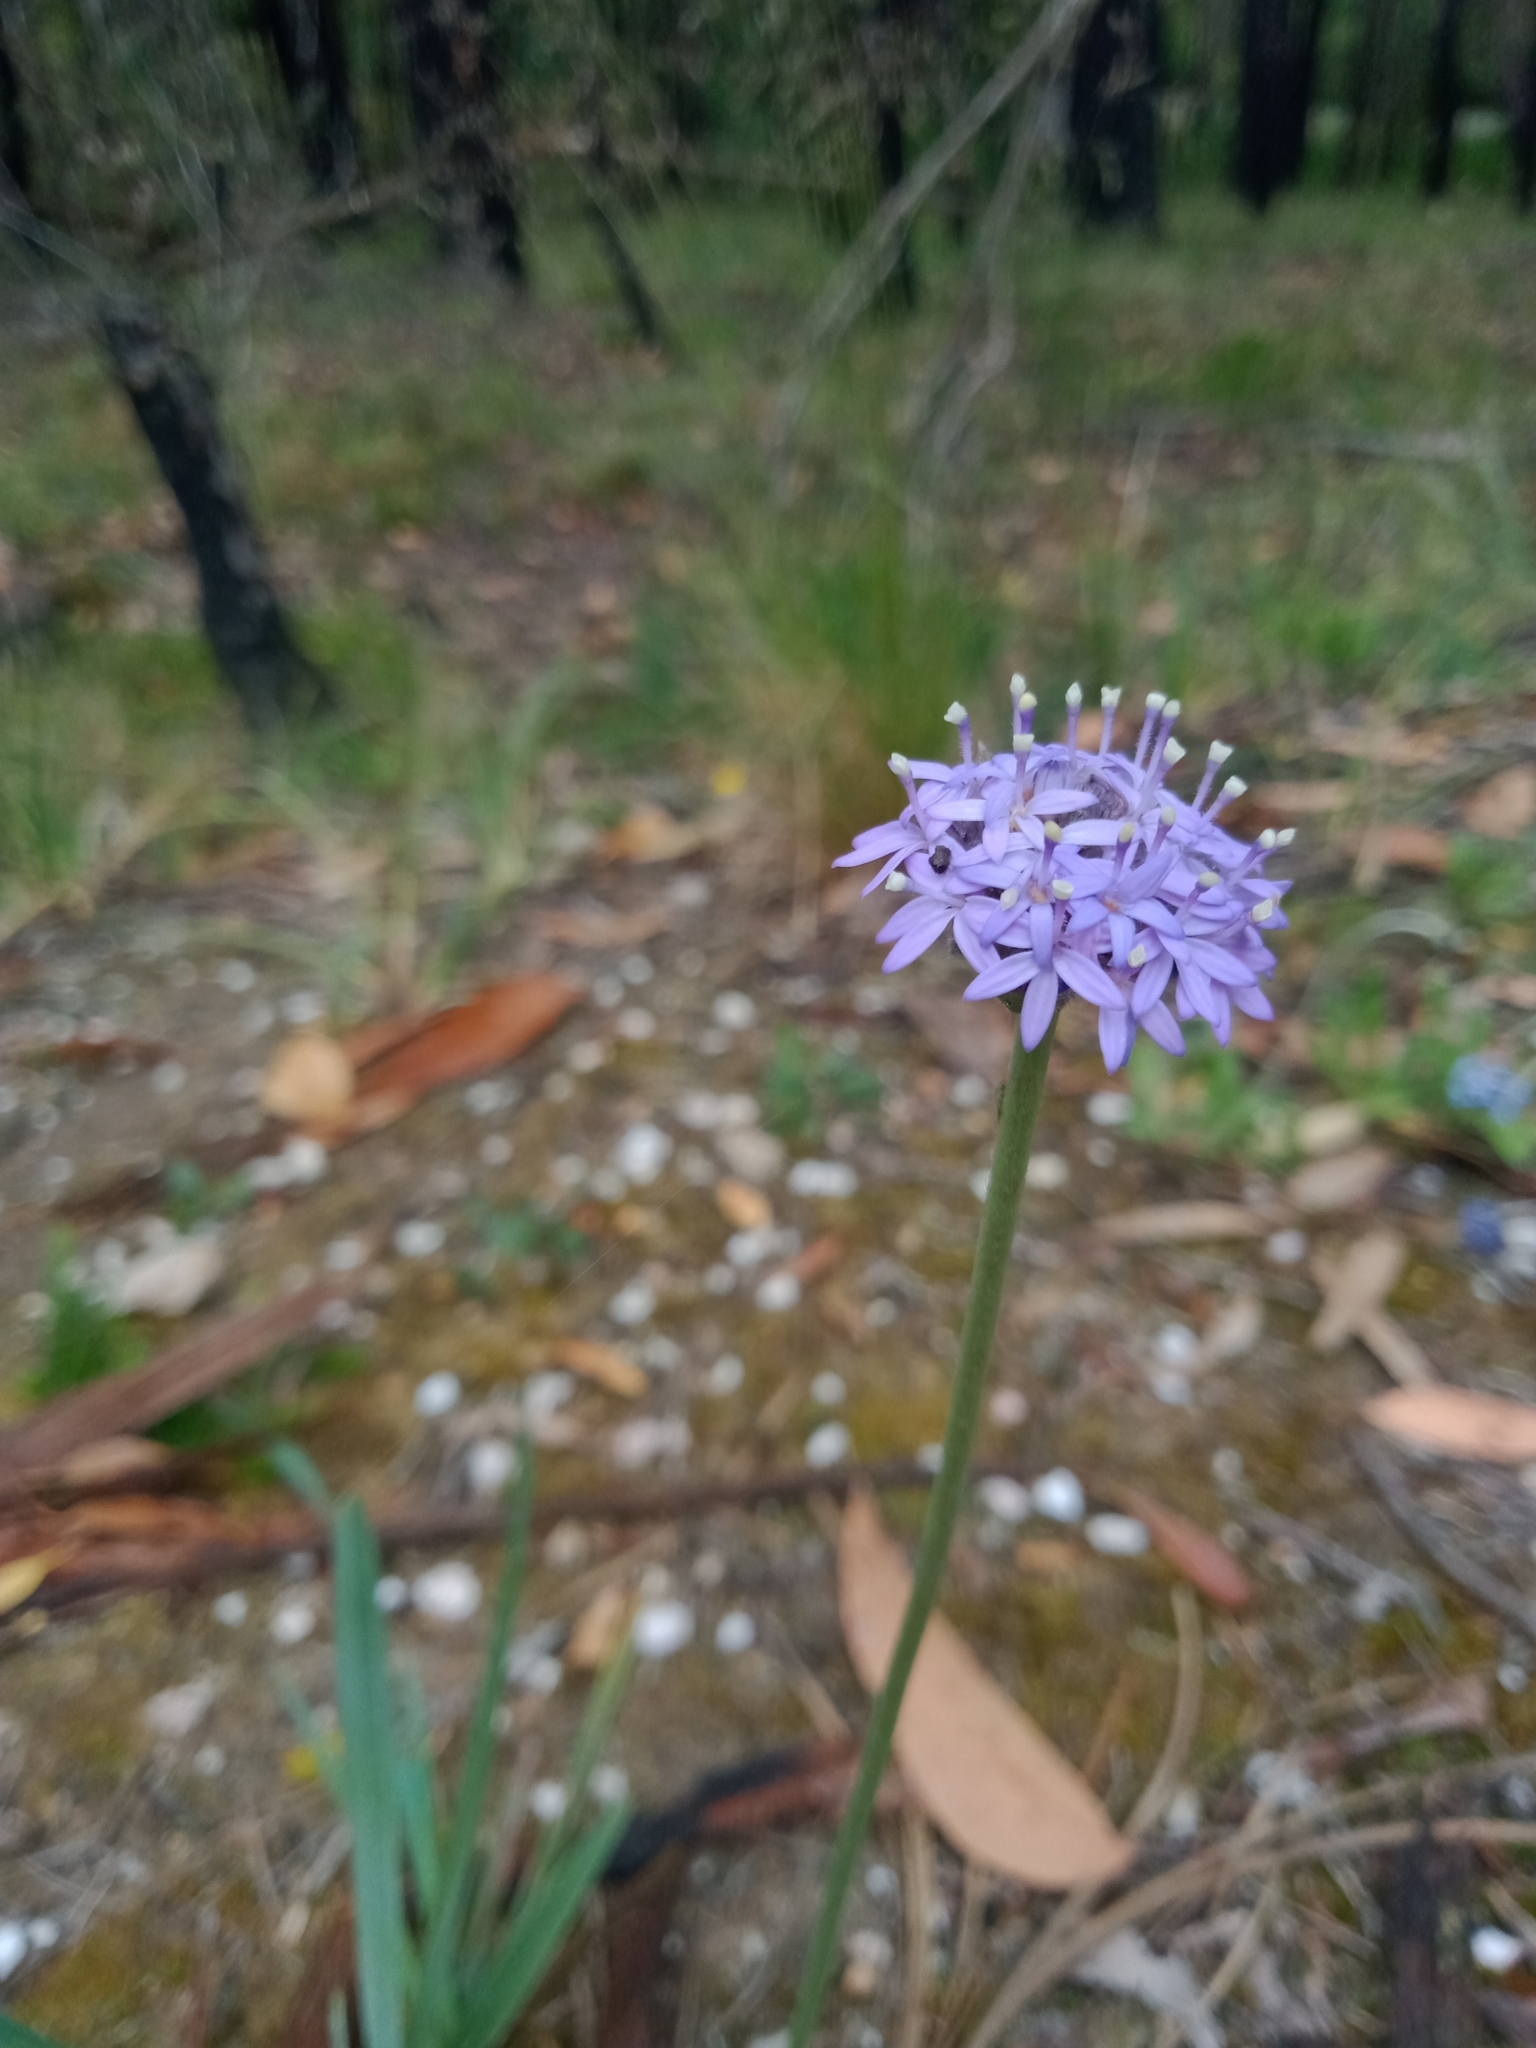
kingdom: Plantae
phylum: Tracheophyta
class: Magnoliopsida
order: Asterales
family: Goodeniaceae
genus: Brunonia
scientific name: Brunonia australis
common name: Blue pincushion
